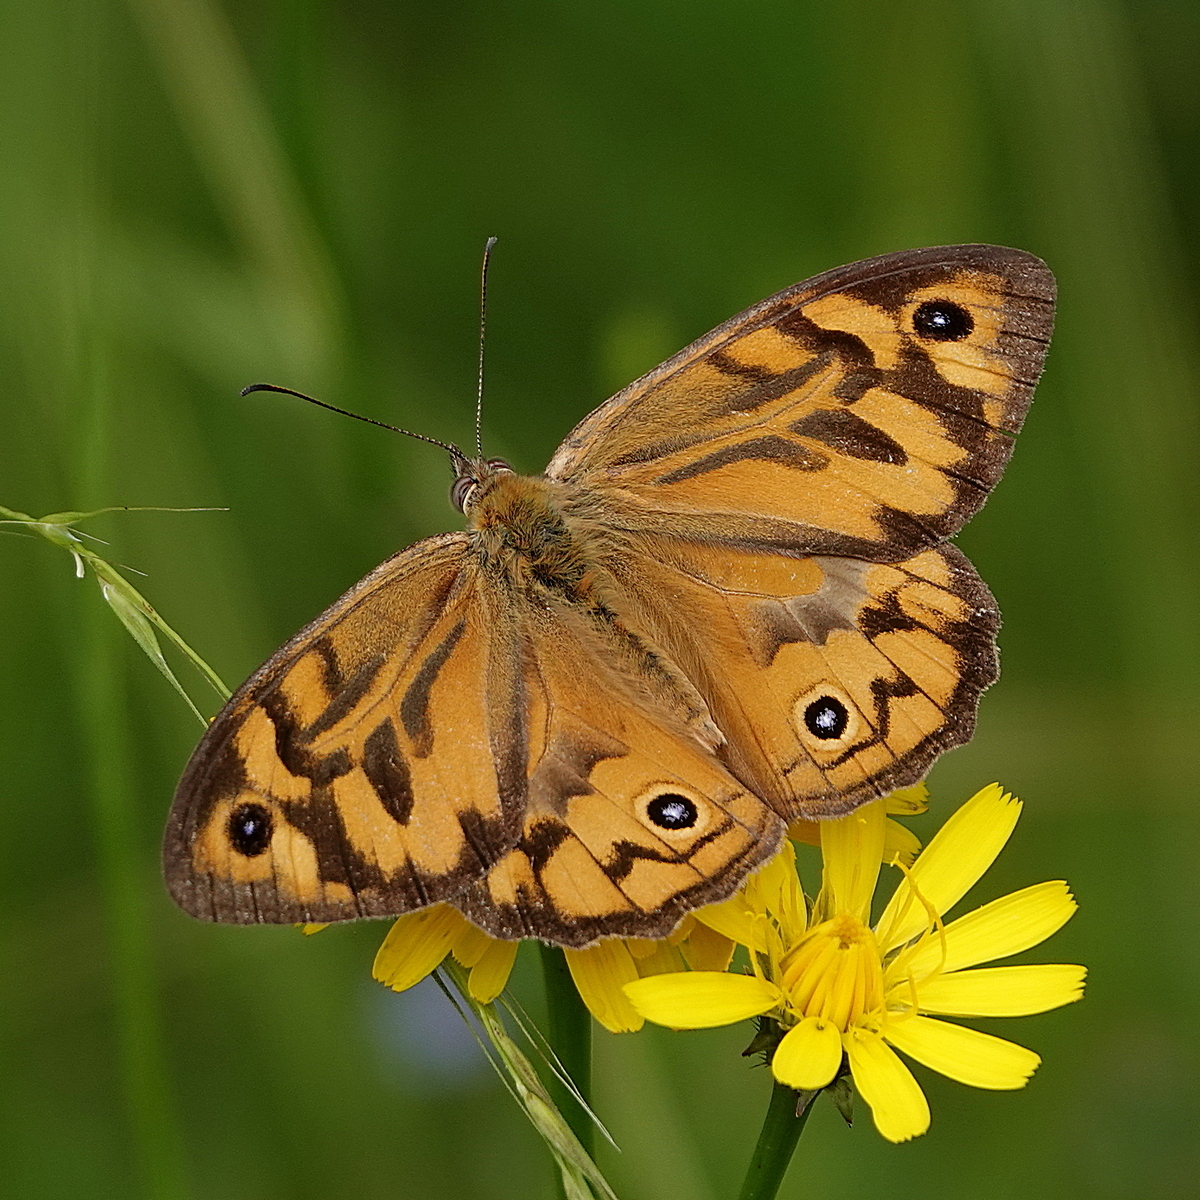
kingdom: Animalia
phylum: Arthropoda
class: Insecta
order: Lepidoptera
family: Nymphalidae
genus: Heteronympha
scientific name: Heteronympha merope
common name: Common brown
